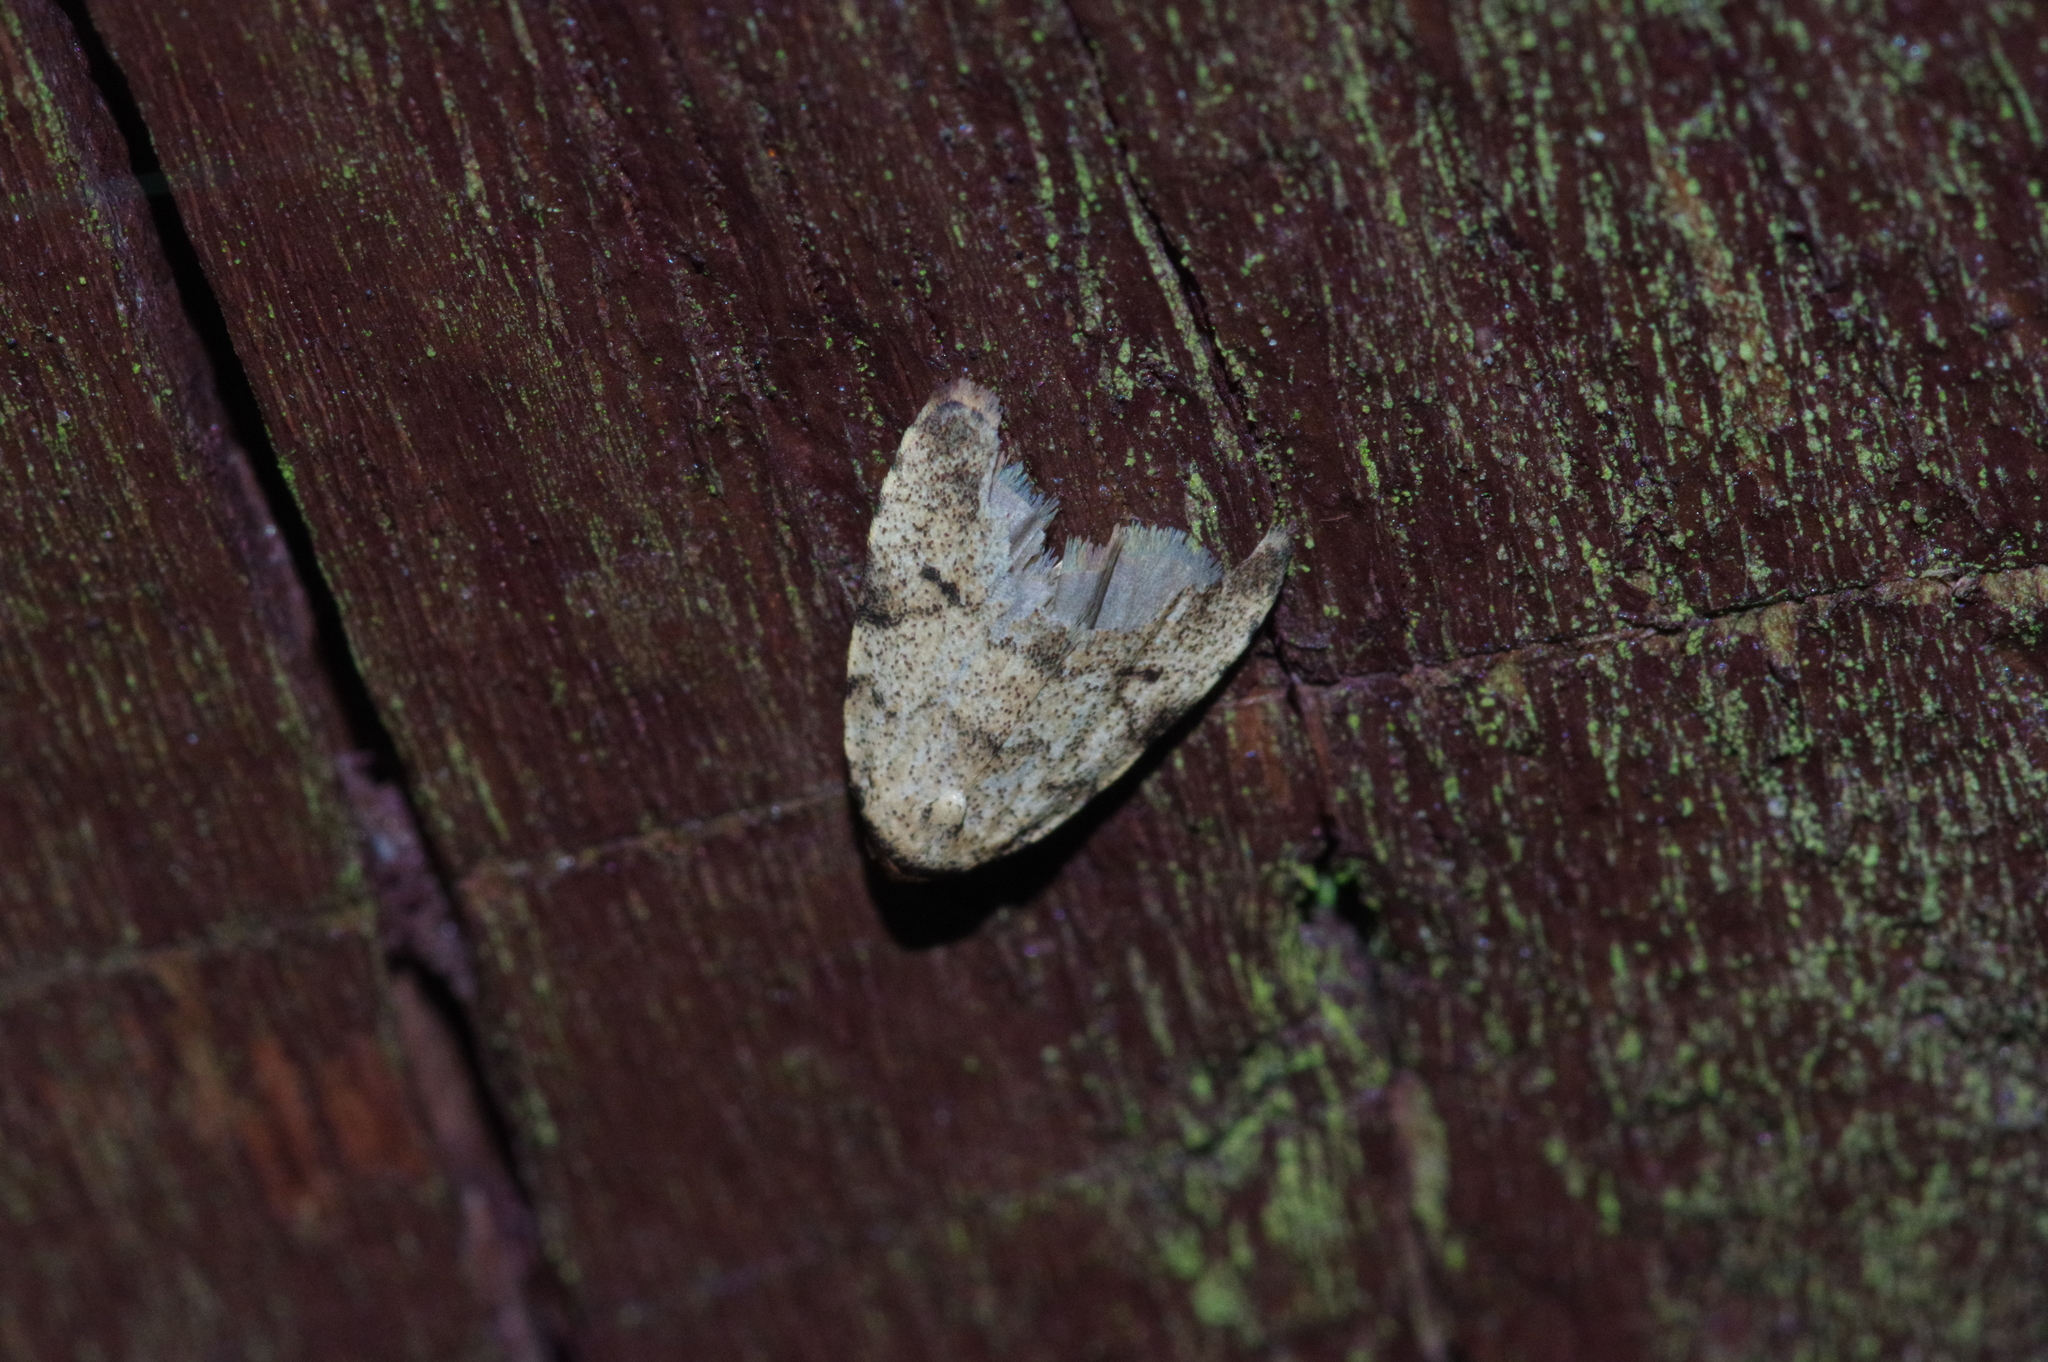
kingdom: Animalia
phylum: Arthropoda
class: Insecta
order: Lepidoptera
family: Erebidae
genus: Neachrostia
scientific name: Neachrostia
